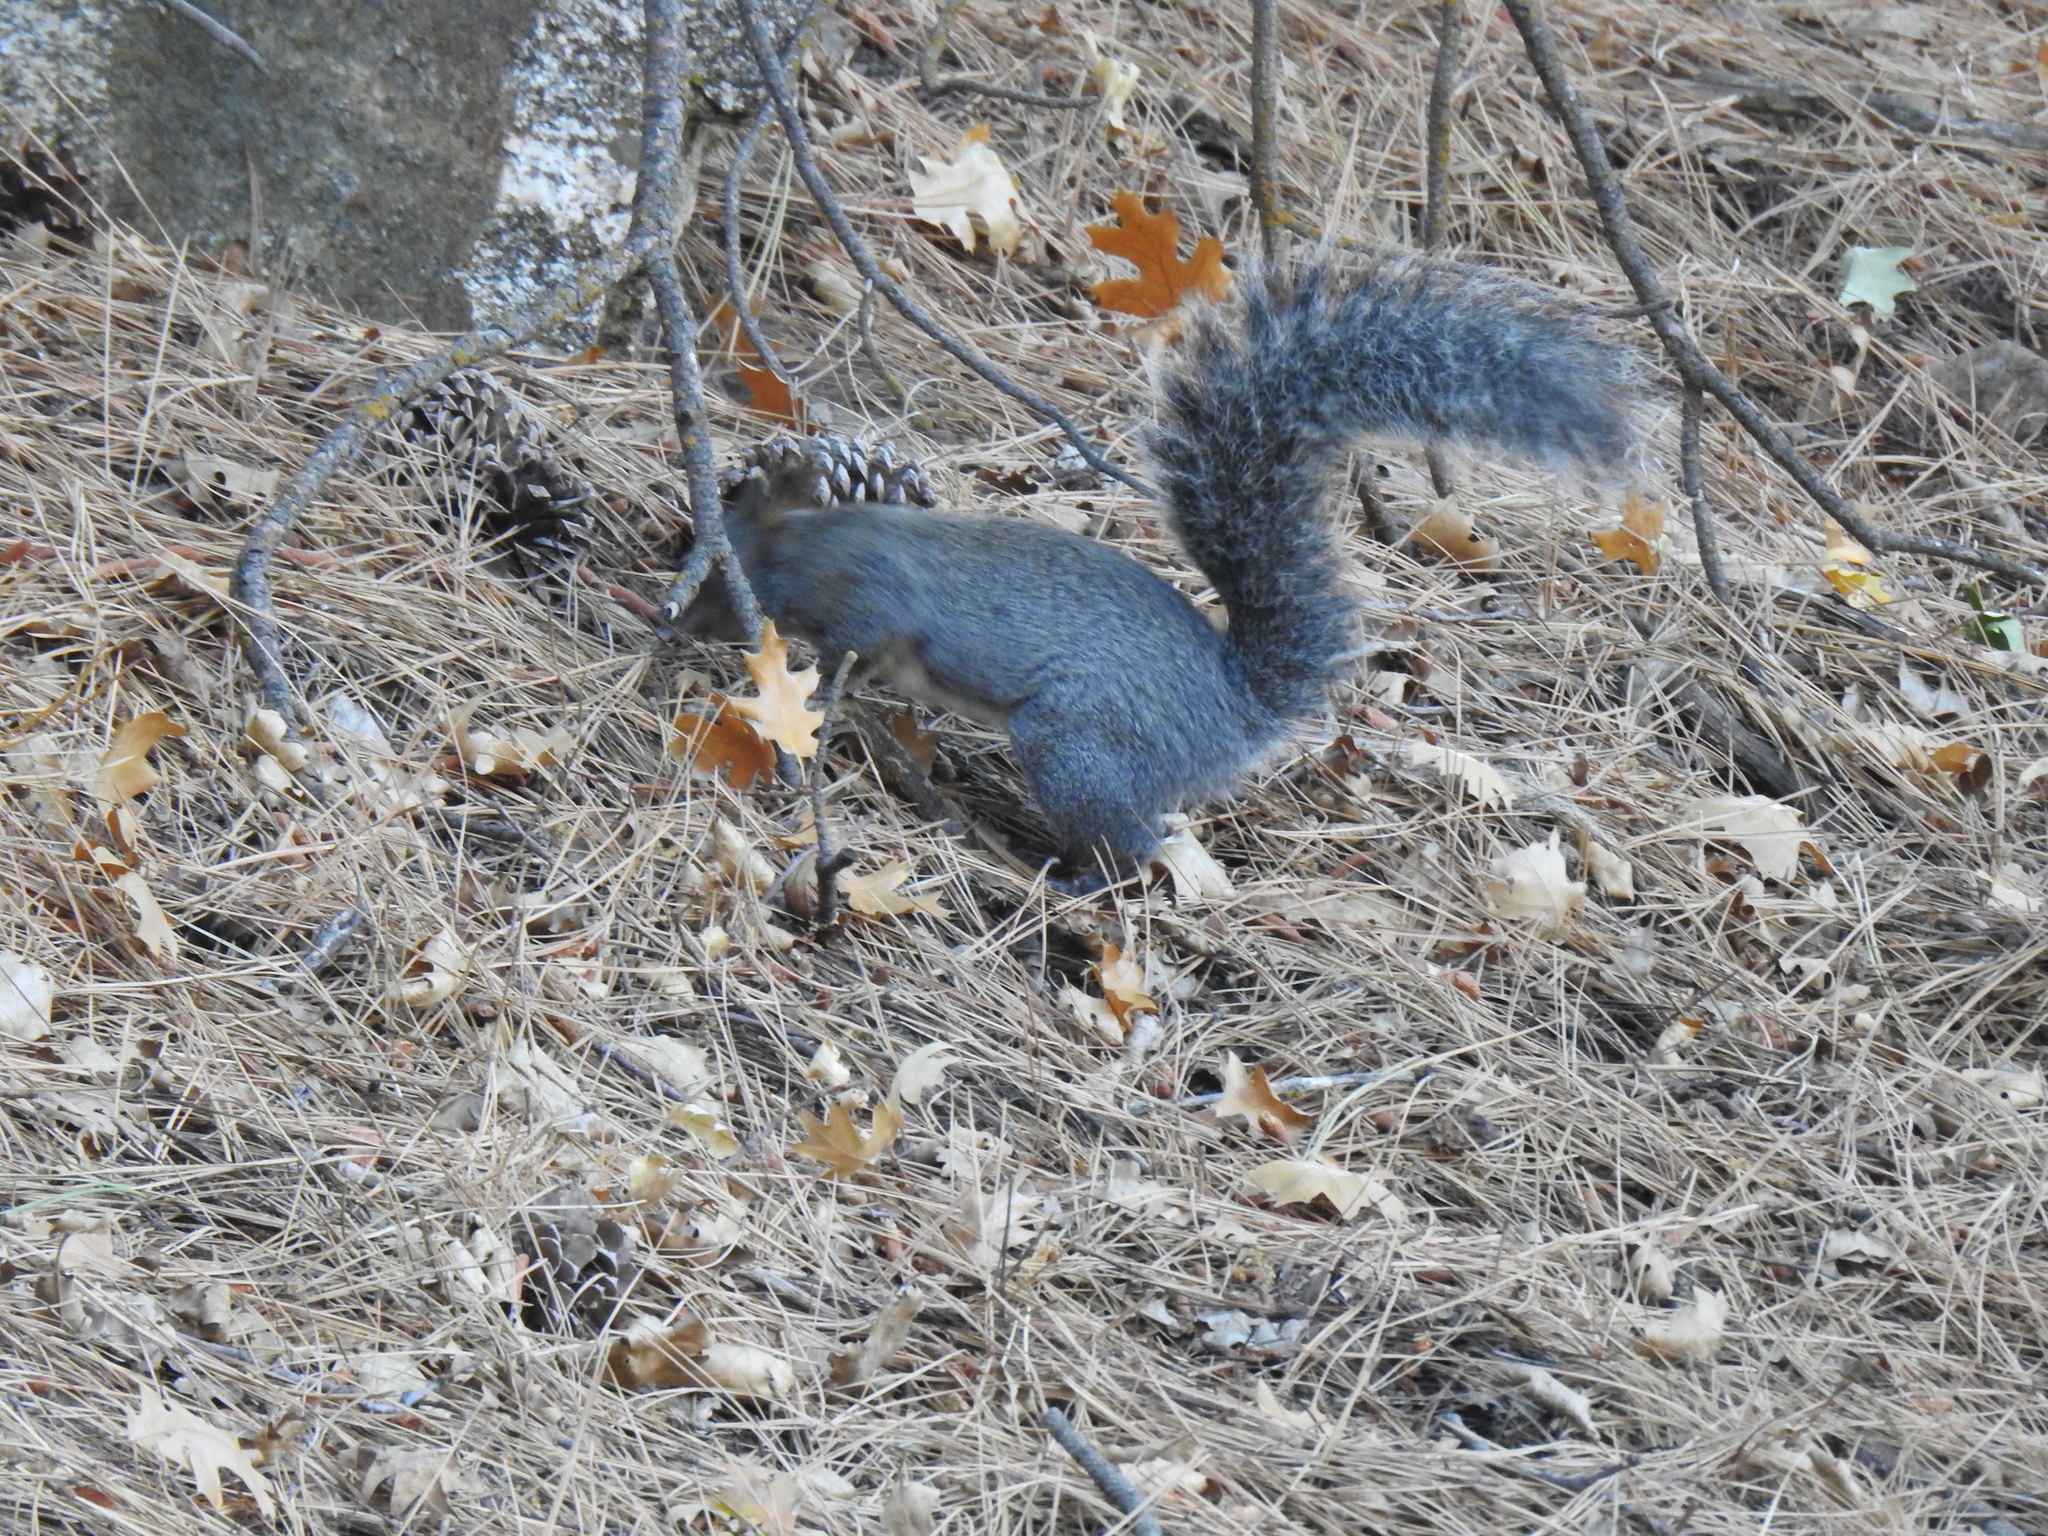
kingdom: Animalia
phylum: Chordata
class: Mammalia
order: Rodentia
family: Sciuridae
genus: Sciurus
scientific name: Sciurus griseus
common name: Western gray squirrel
